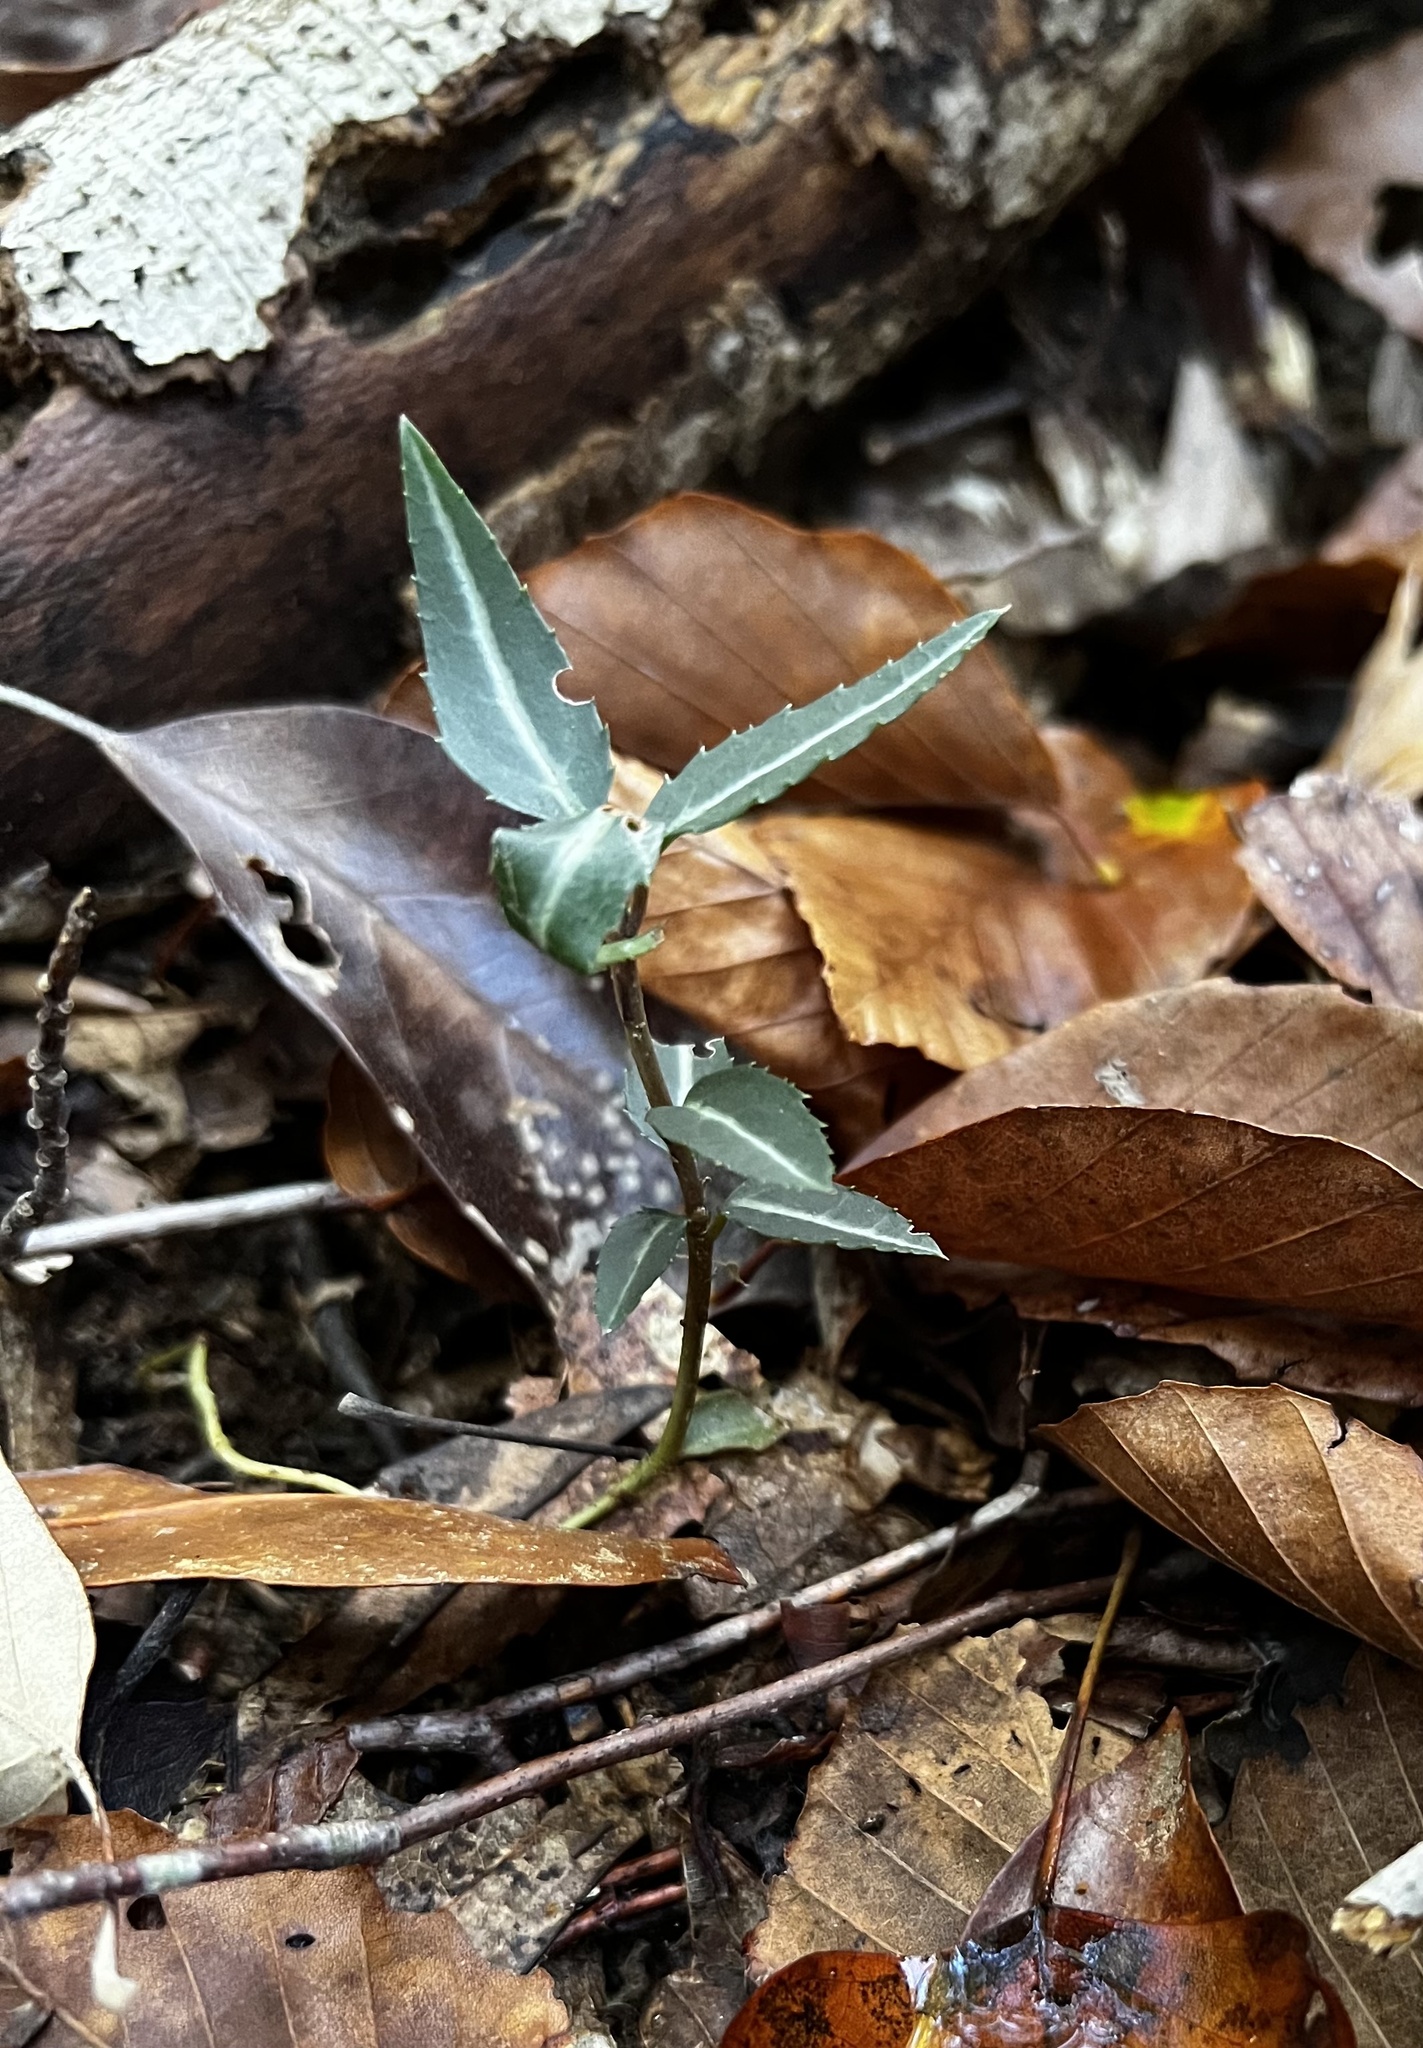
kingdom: Plantae
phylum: Tracheophyta
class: Magnoliopsida
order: Ericales
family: Ericaceae
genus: Chimaphila
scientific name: Chimaphila maculata
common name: Spotted pipsissewa
